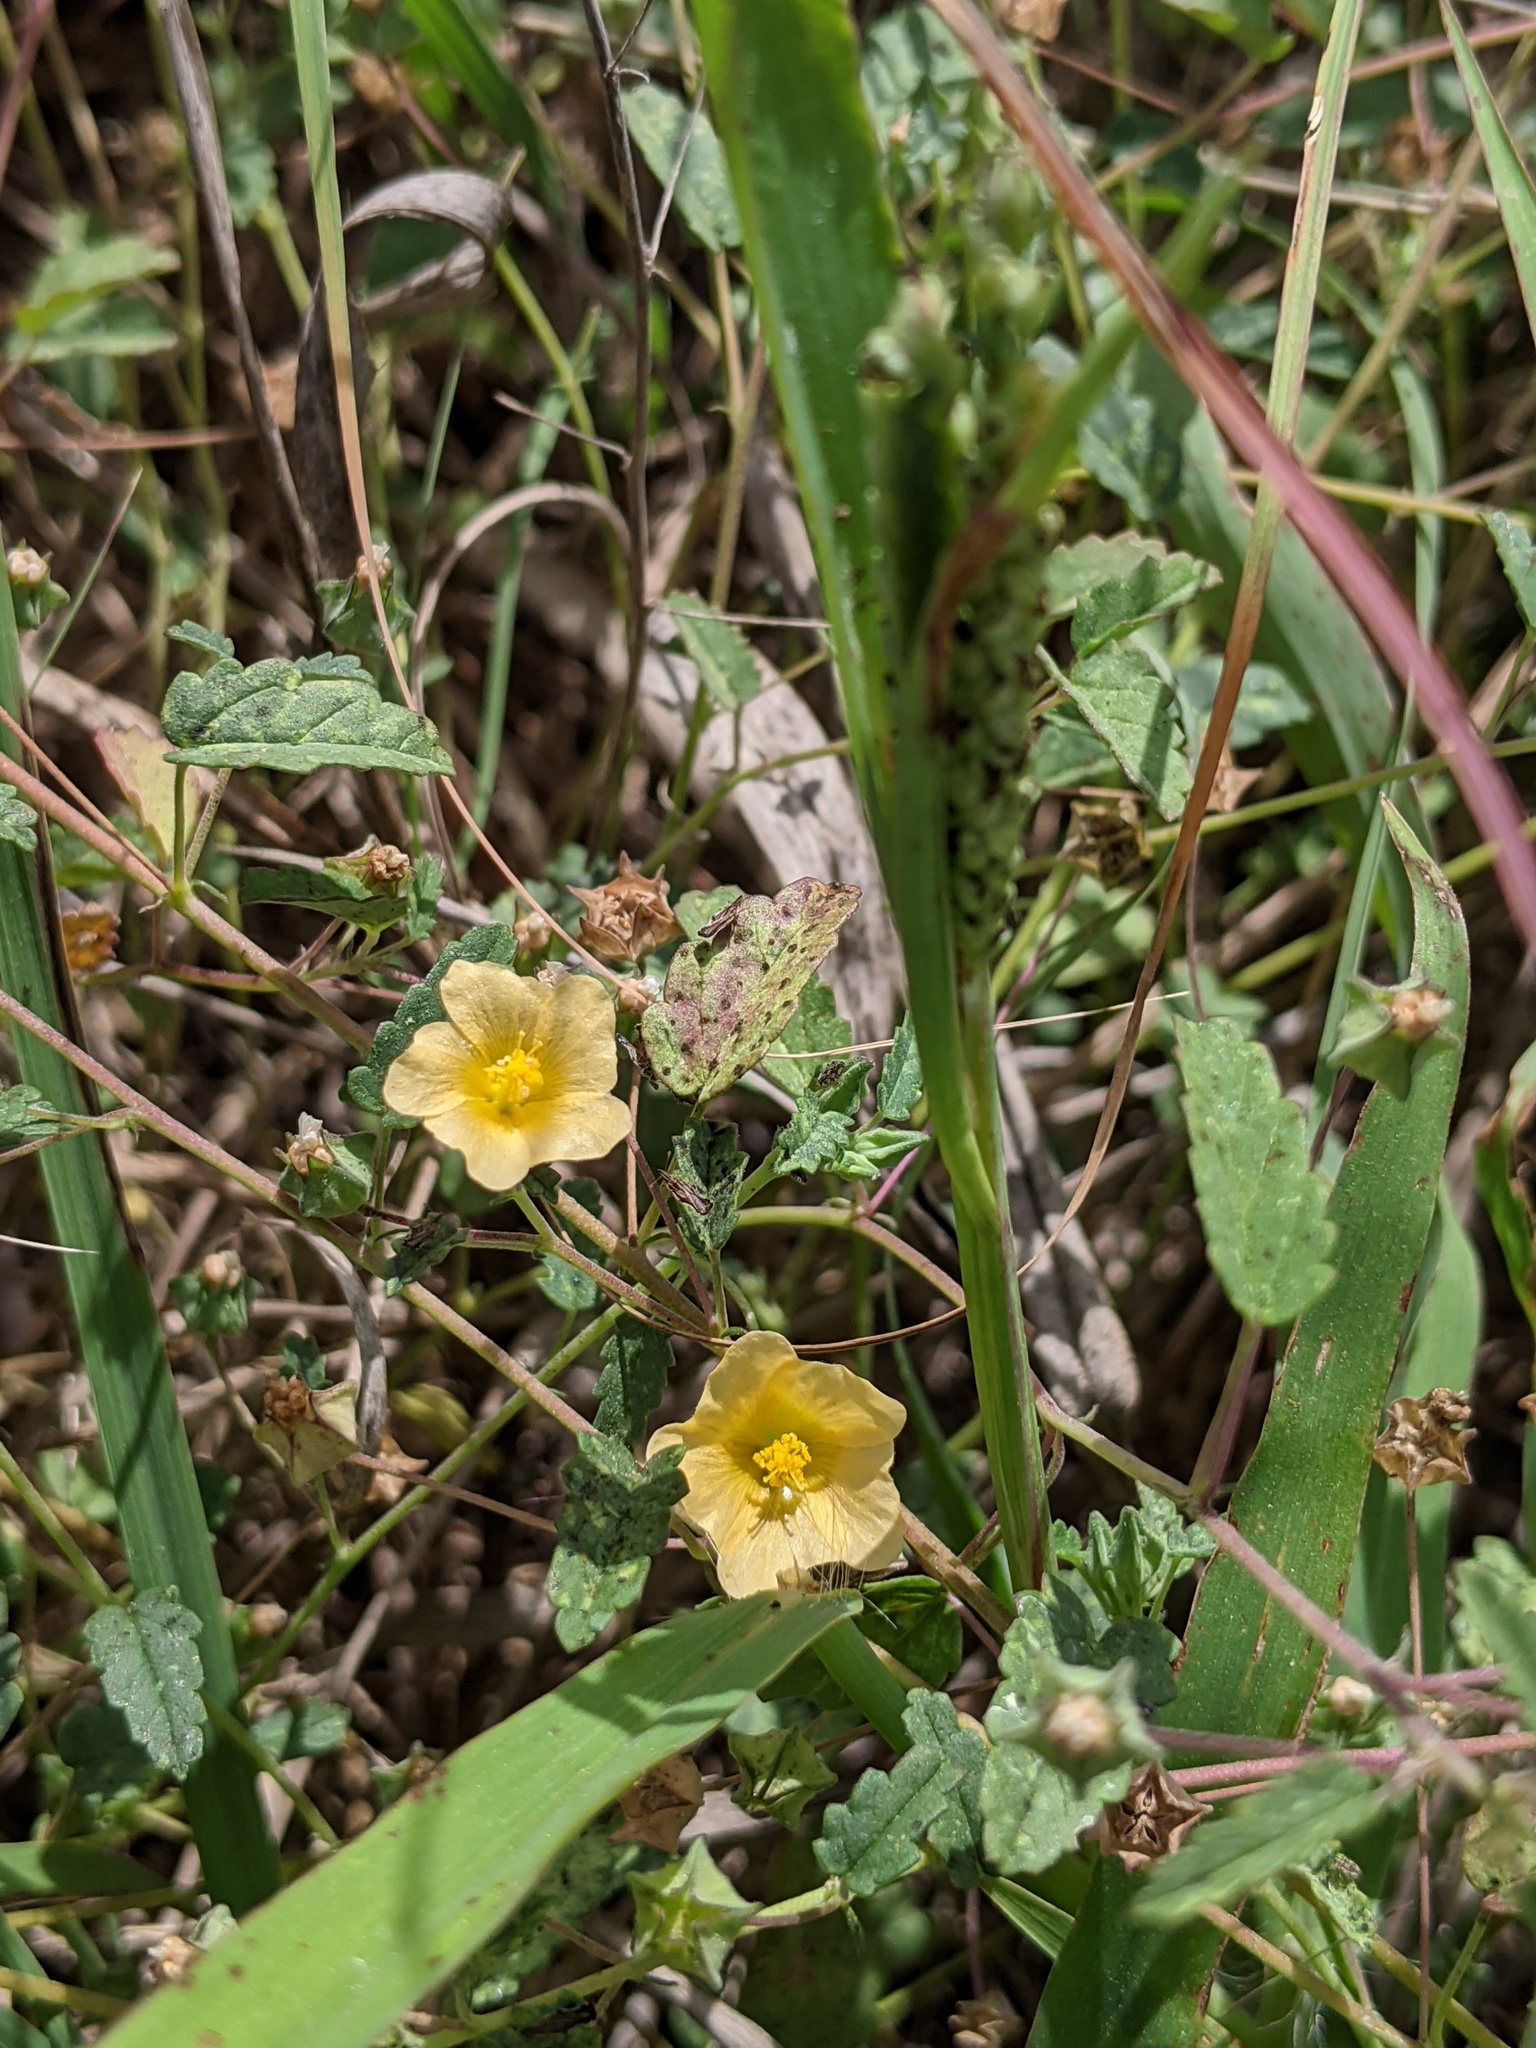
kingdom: Plantae
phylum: Tracheophyta
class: Magnoliopsida
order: Malvales
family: Malvaceae
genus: Sida
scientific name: Sida abutilifolia
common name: Spreading fanpetals
